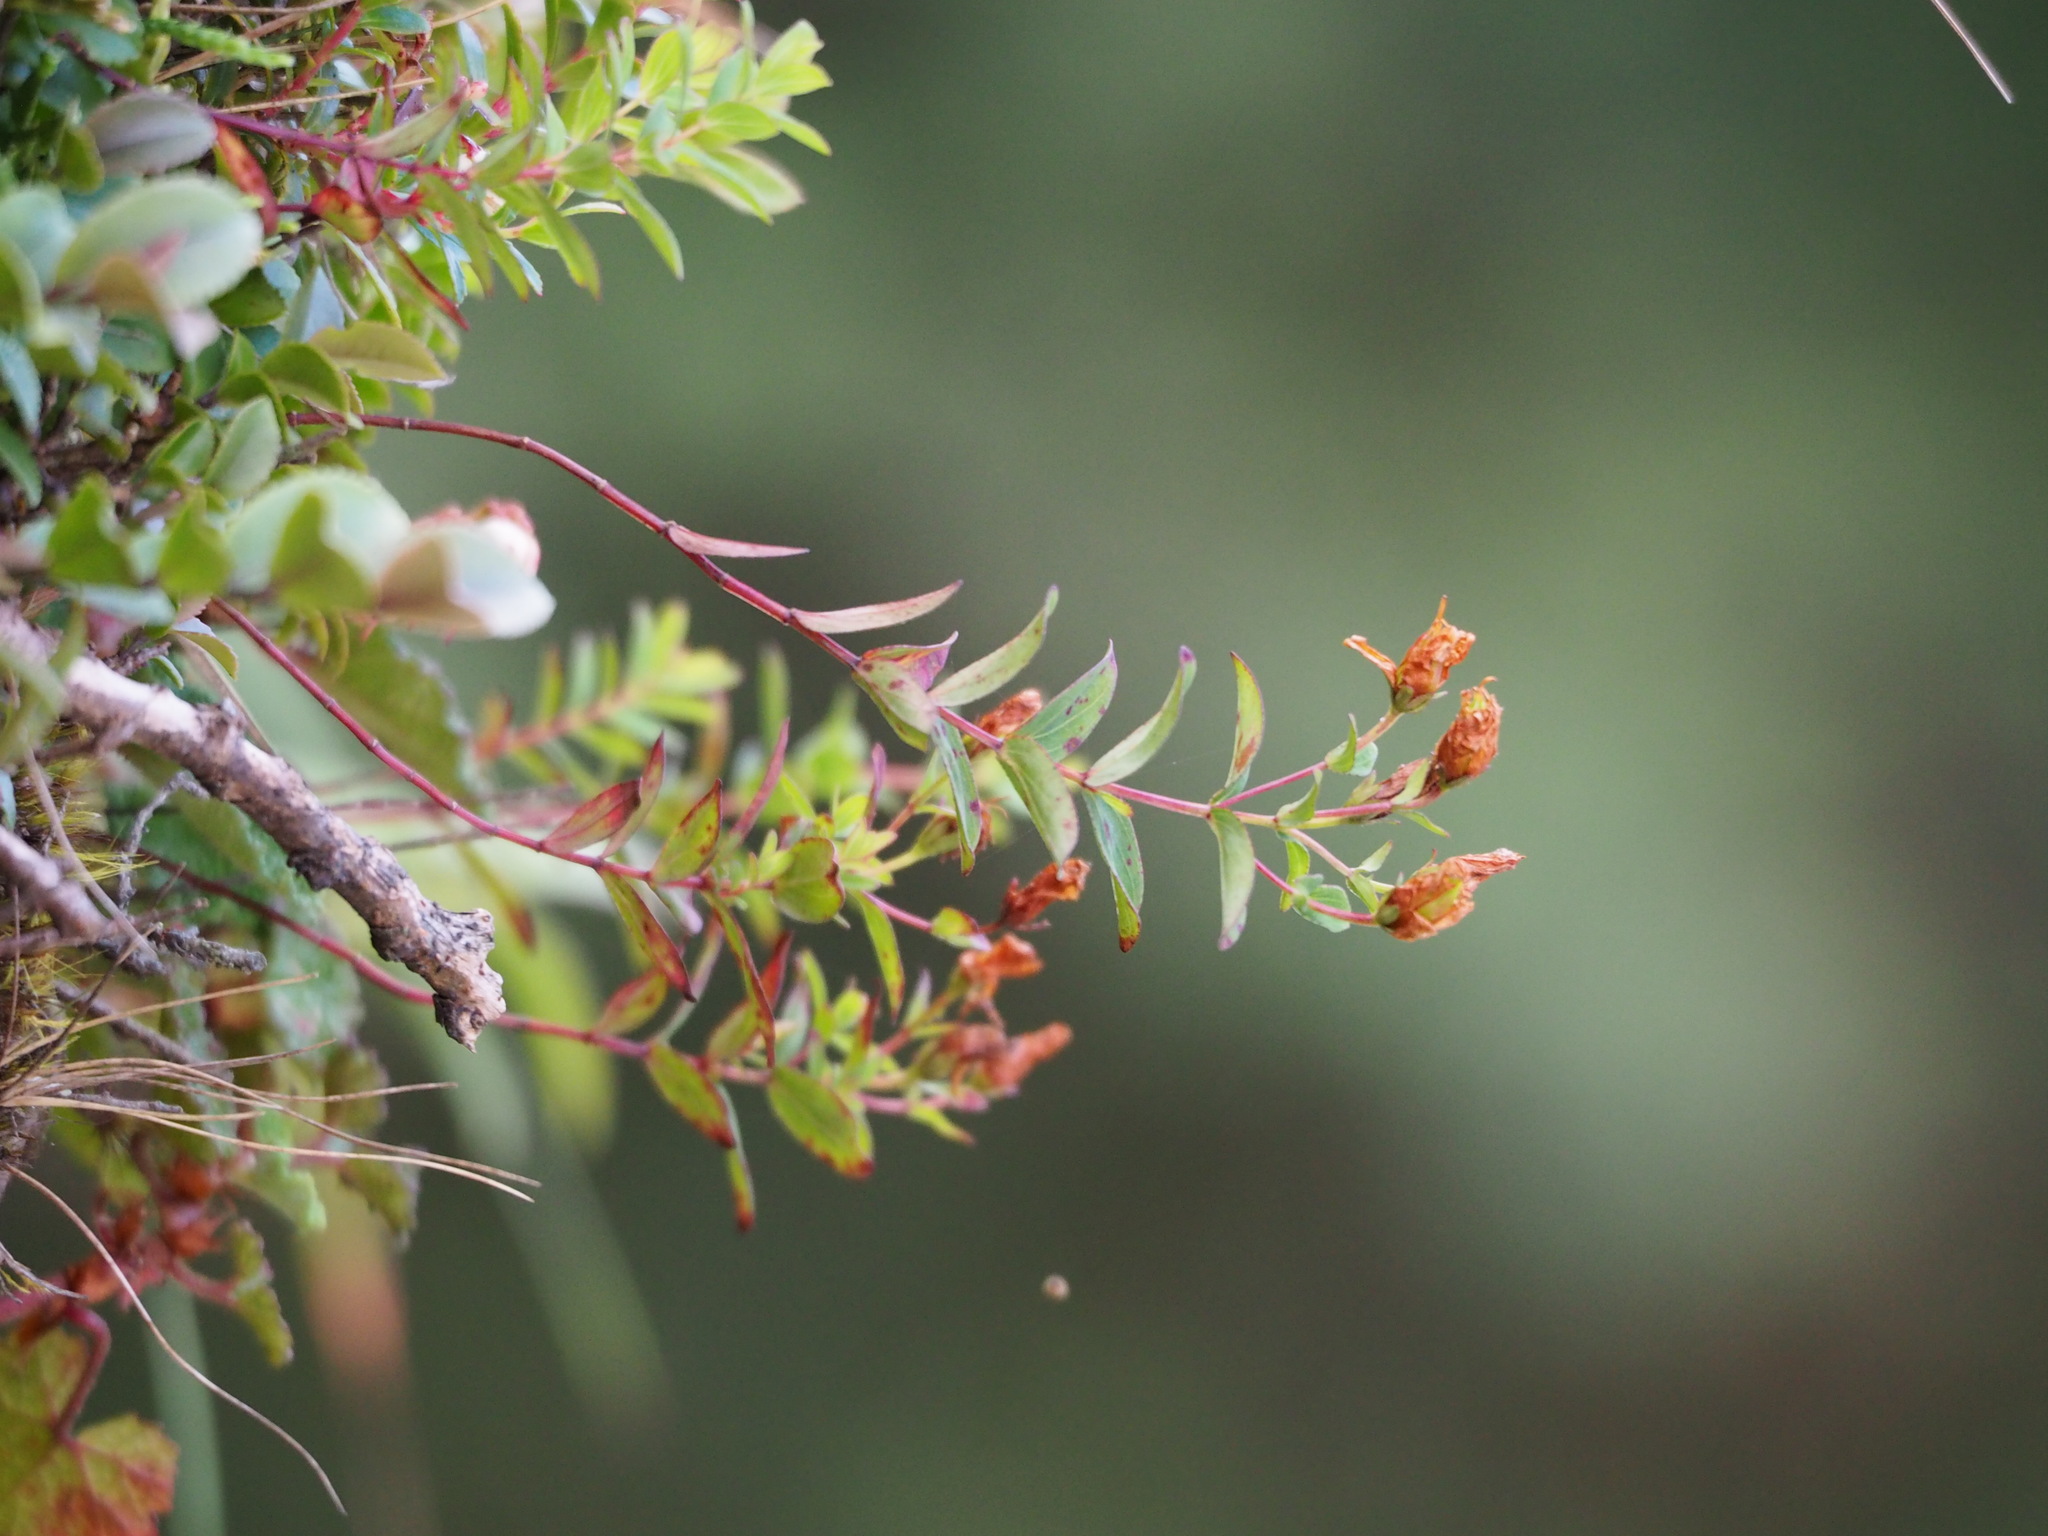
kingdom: Plantae
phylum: Tracheophyta
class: Magnoliopsida
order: Malpighiales
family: Hypericaceae
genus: Hypericum
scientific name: Hypericum nagasawae
